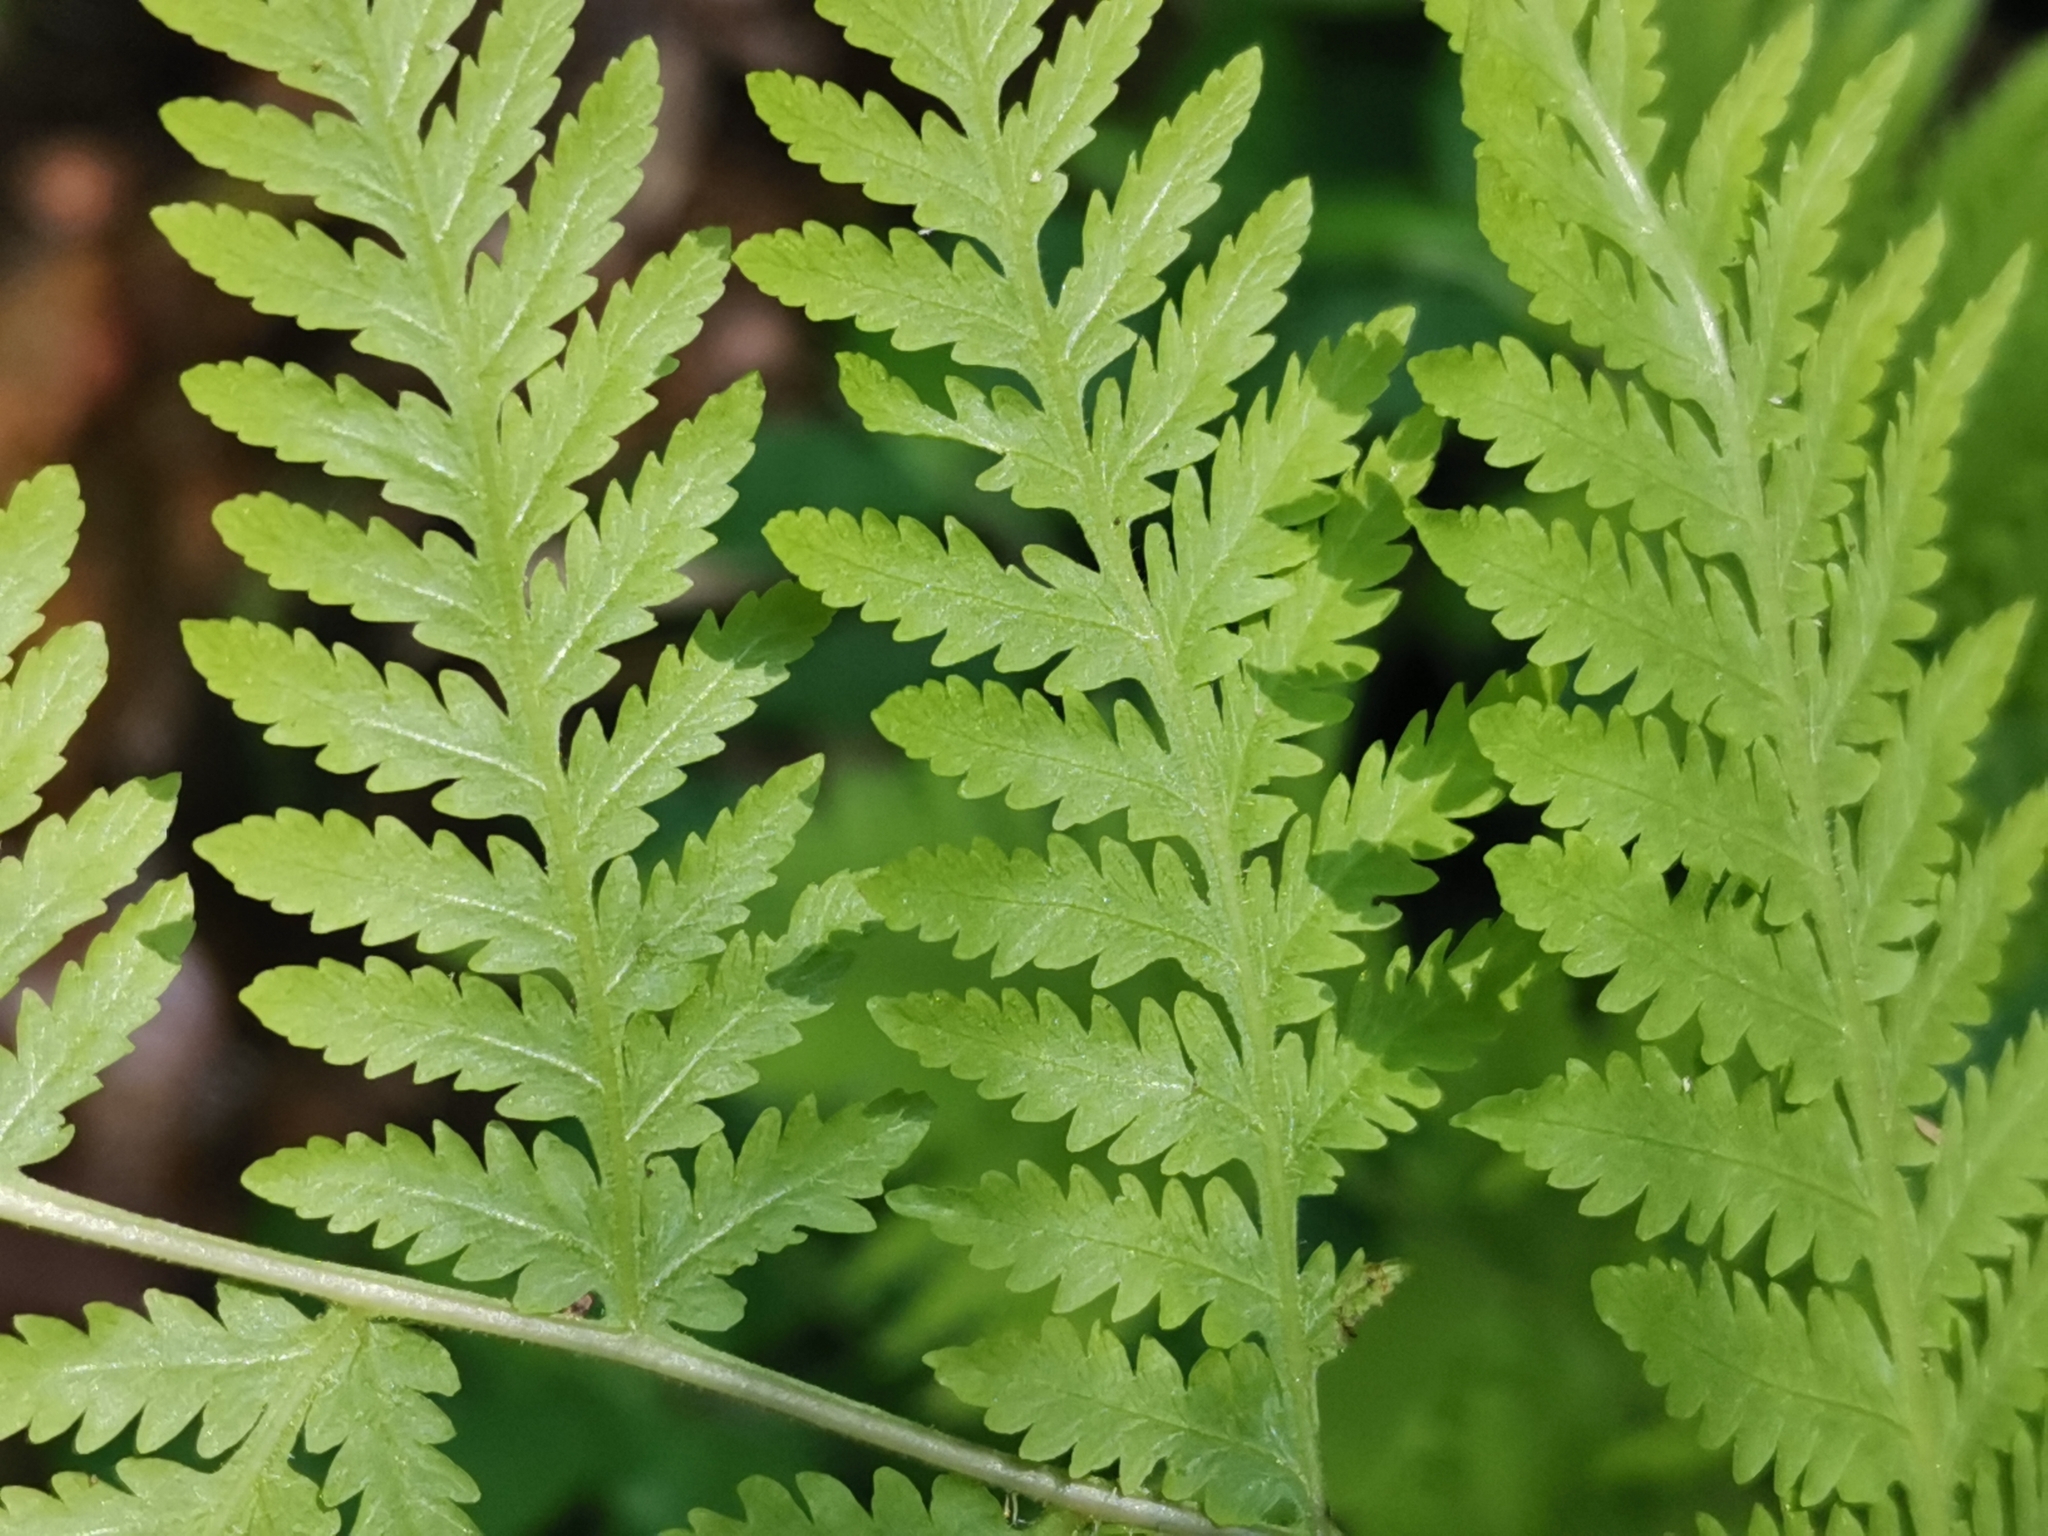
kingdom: Plantae
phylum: Tracheophyta
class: Polypodiopsida
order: Polypodiales
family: Thelypteridaceae
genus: Macrothelypteris
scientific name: Macrothelypteris viridifrons
